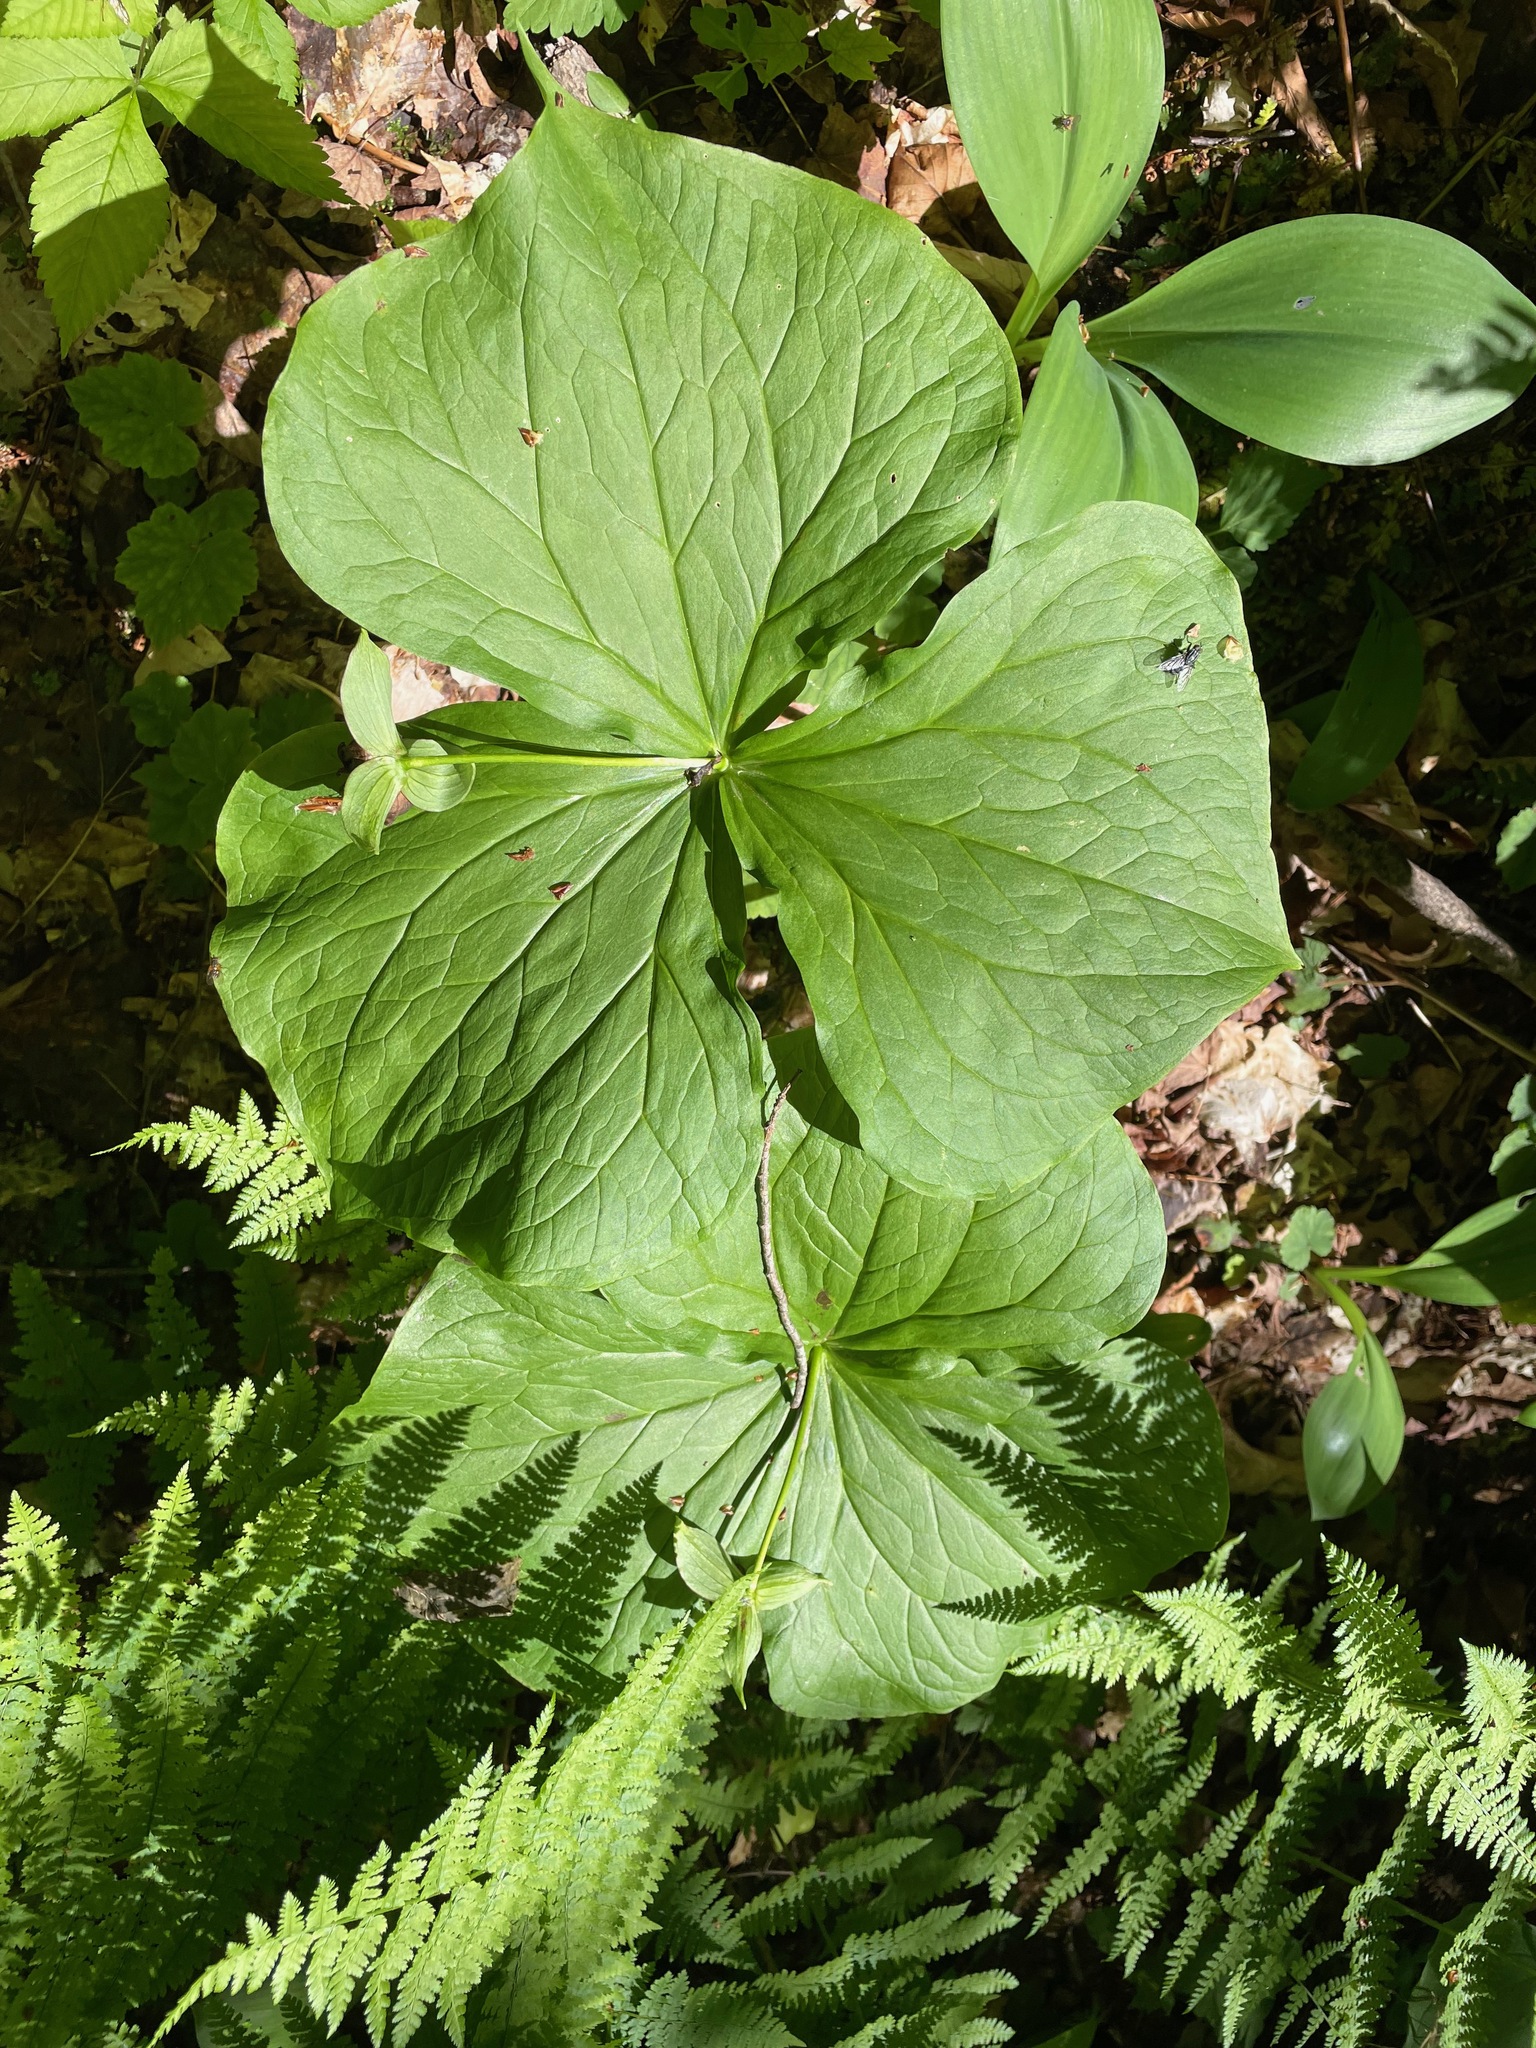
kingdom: Plantae
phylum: Tracheophyta
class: Liliopsida
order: Liliales
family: Melanthiaceae
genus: Trillium
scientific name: Trillium erectum
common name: Purple trillium
